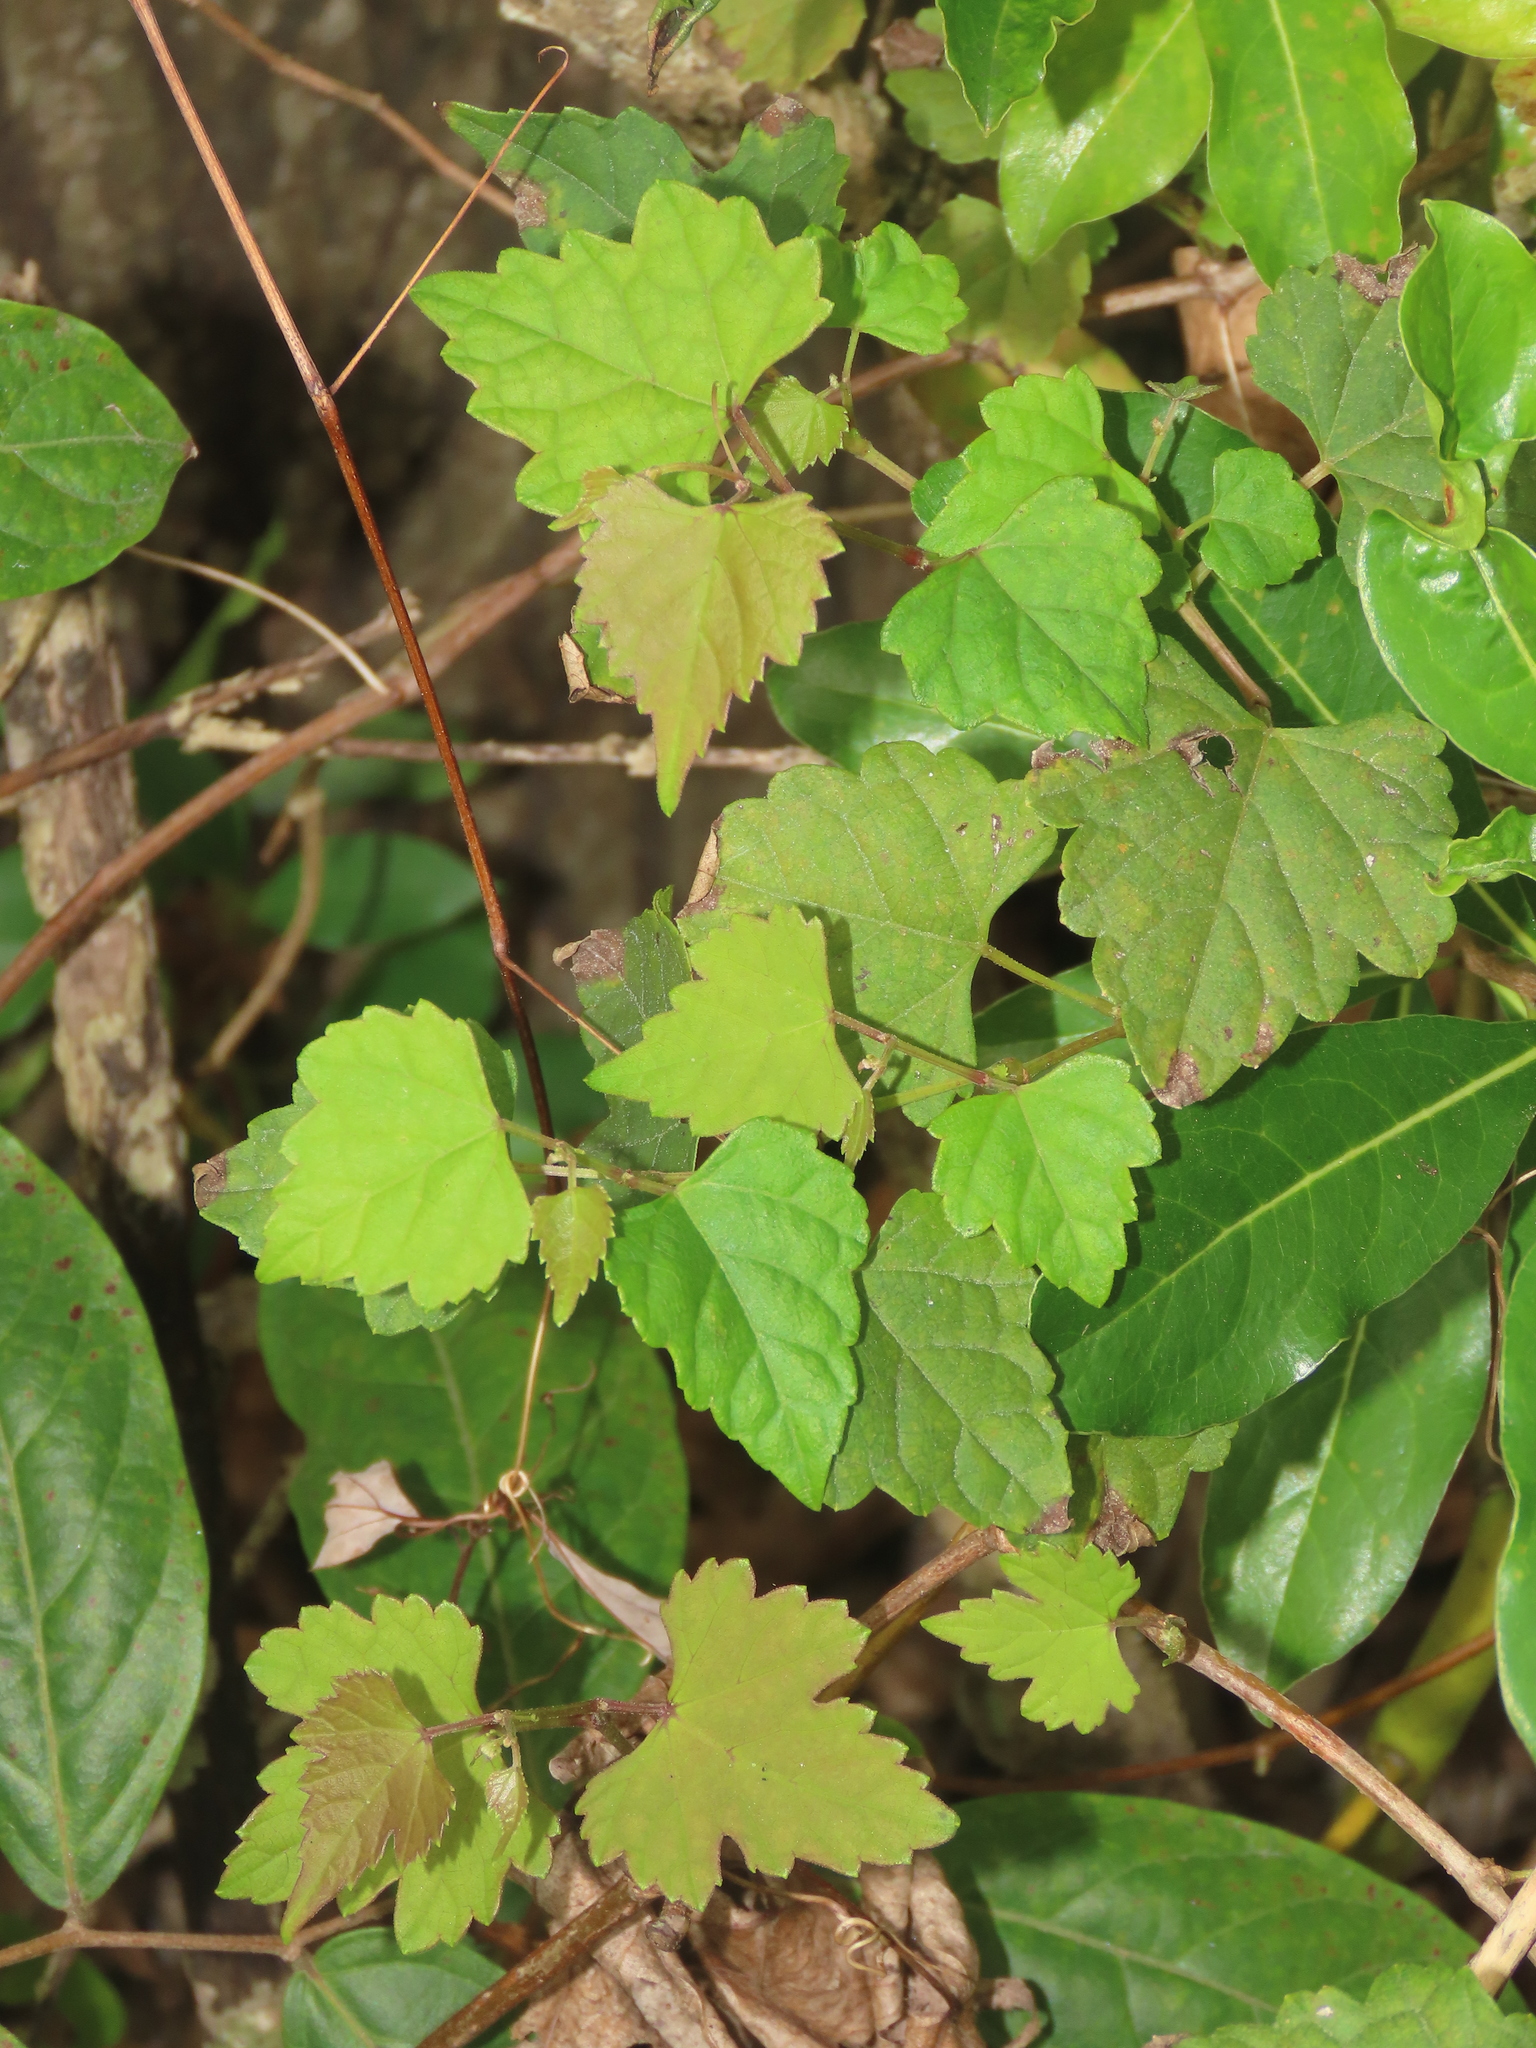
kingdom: Plantae
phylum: Tracheophyta
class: Magnoliopsida
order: Vitales
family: Vitaceae
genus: Ampelopsis
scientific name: Ampelopsis glandulosa
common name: Amur peppervine
